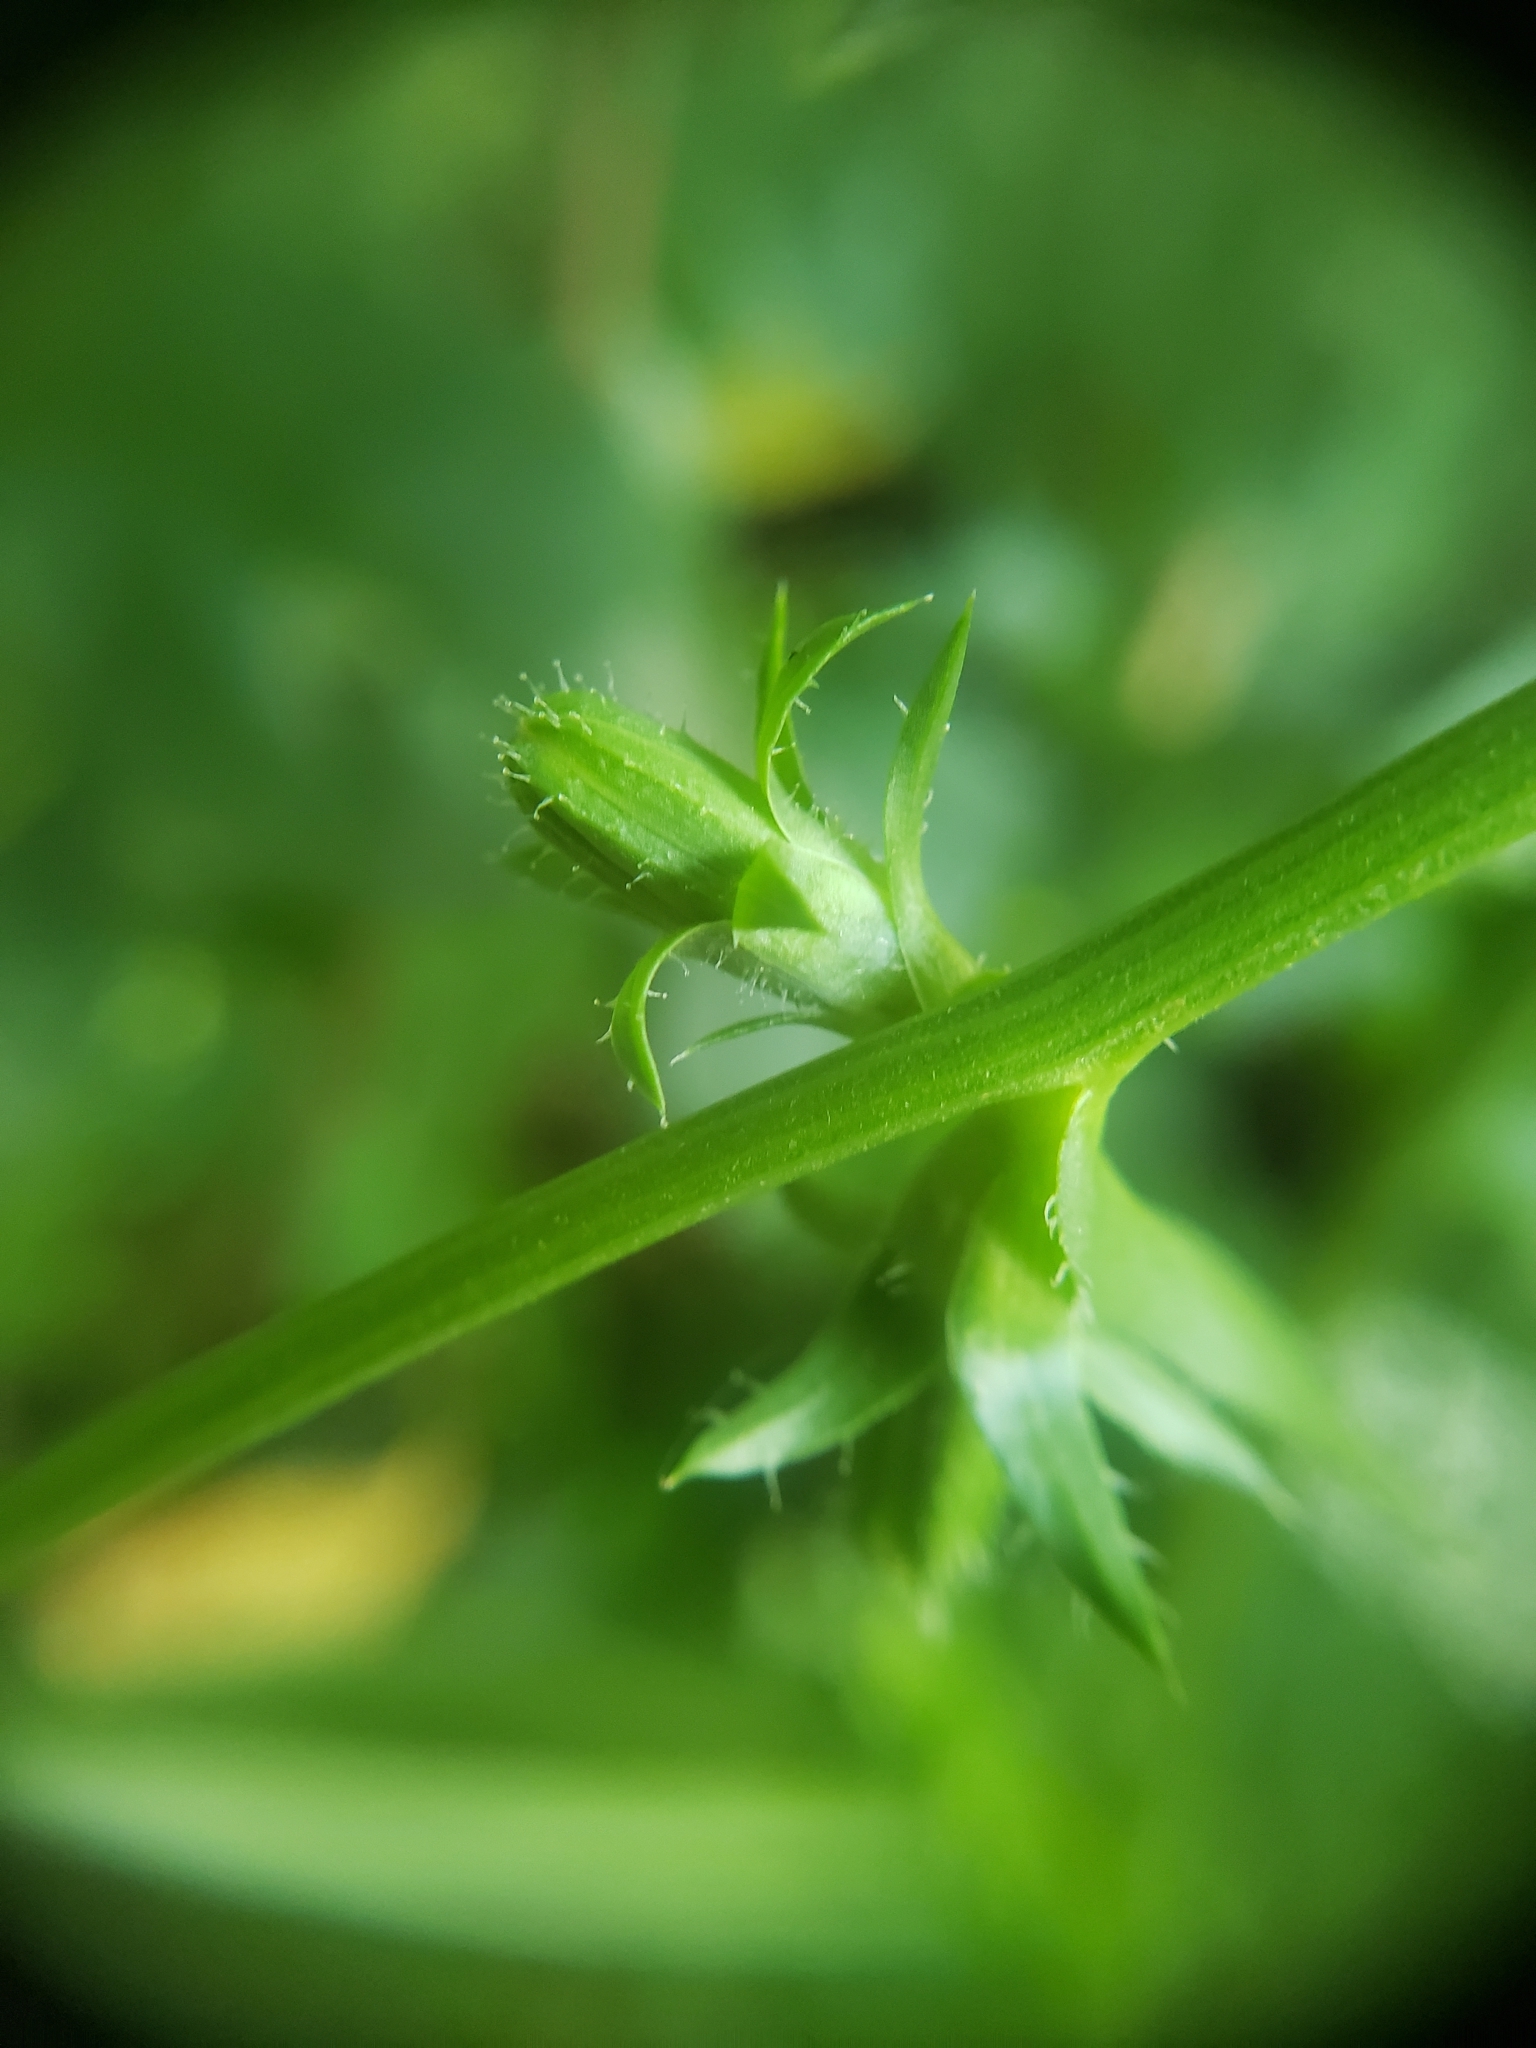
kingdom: Plantae
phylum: Tracheophyta
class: Magnoliopsida
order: Asterales
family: Asteraceae
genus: Cichorium
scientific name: Cichorium intybus
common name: Chicory
